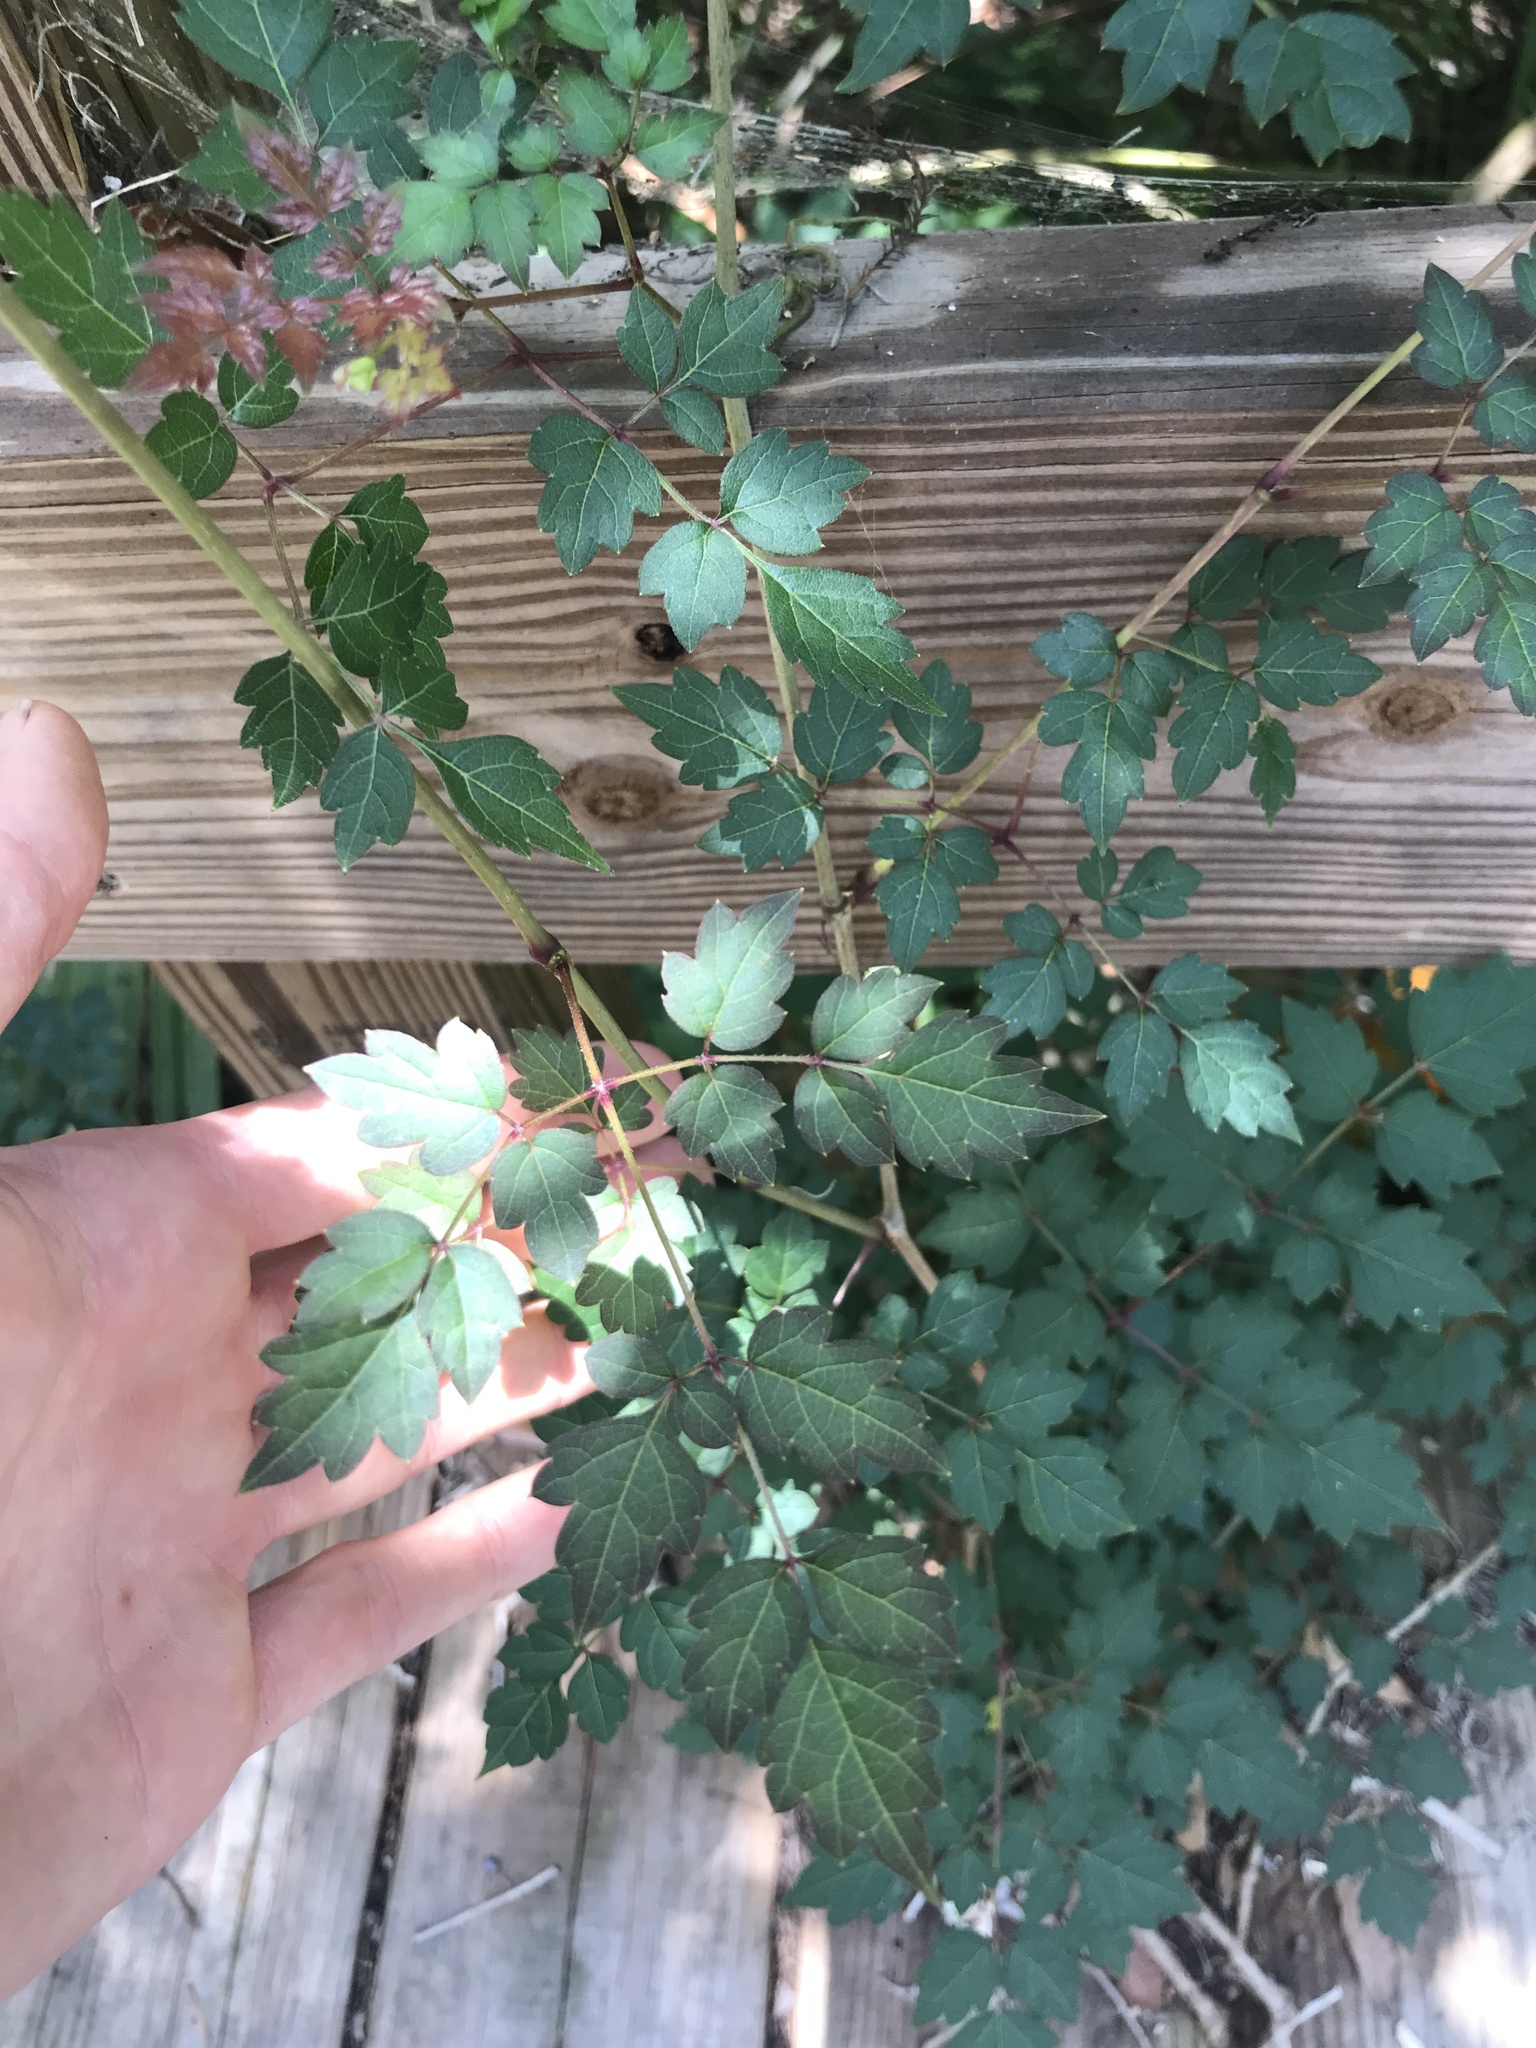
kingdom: Plantae
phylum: Tracheophyta
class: Magnoliopsida
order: Vitales
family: Vitaceae
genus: Nekemias
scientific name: Nekemias arborea
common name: Peppervine
